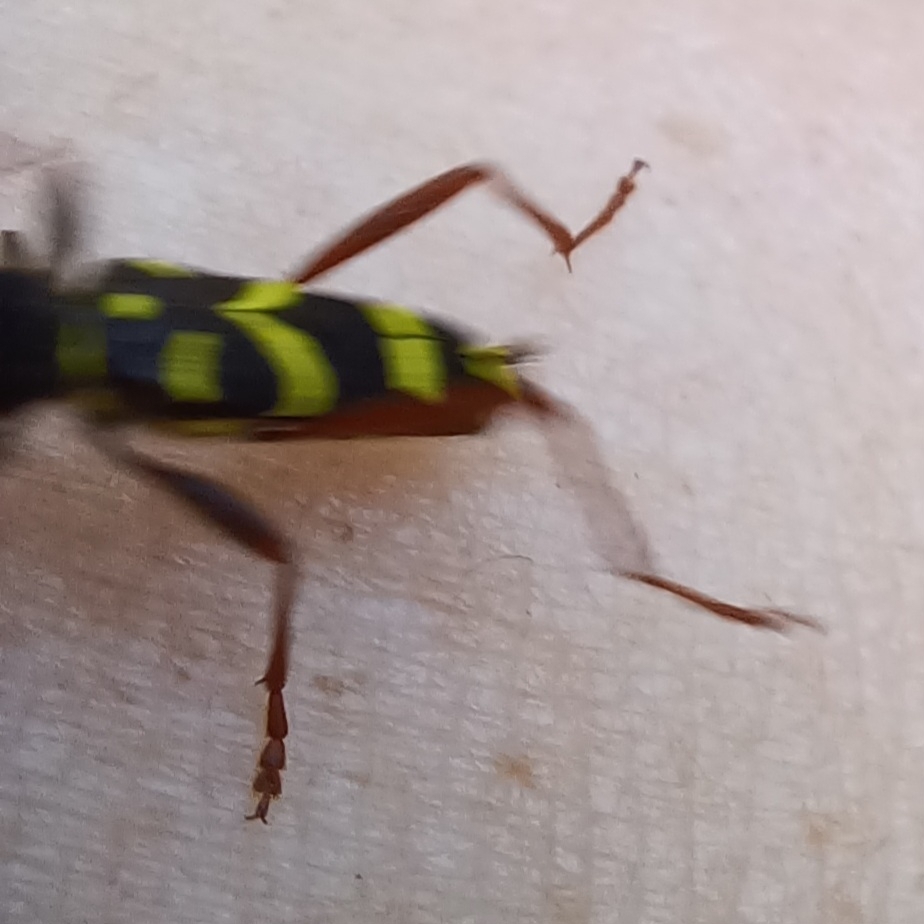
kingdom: Animalia
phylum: Arthropoda
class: Insecta
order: Coleoptera
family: Cerambycidae
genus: Clytus
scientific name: Clytus arietis
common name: Wasp beetle
